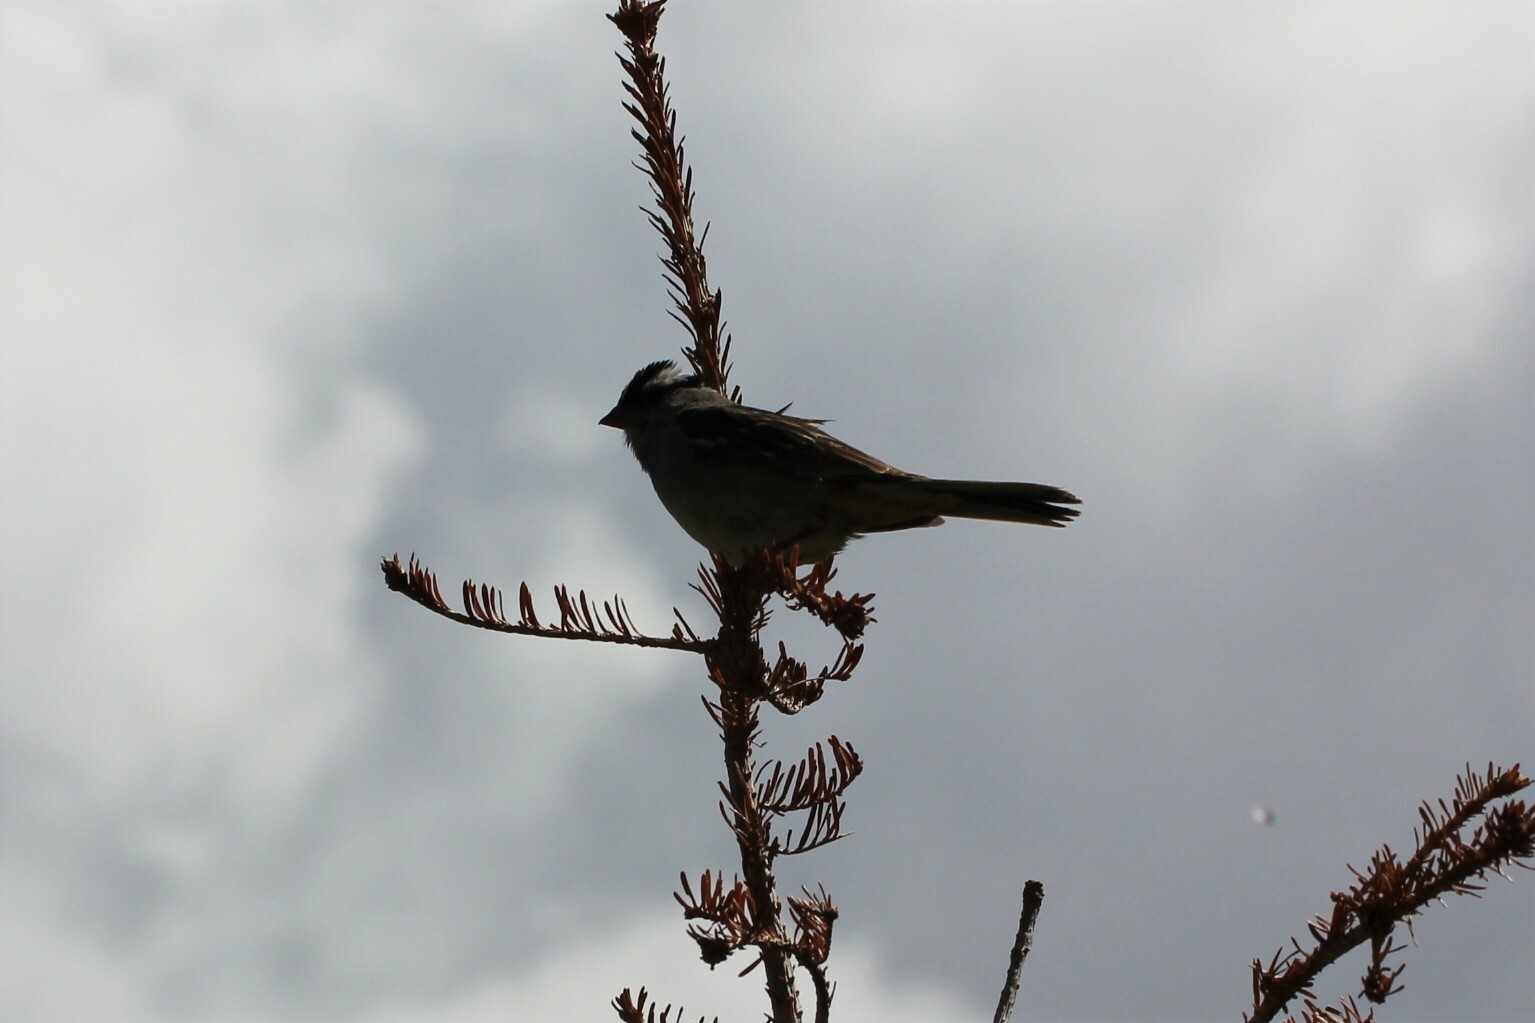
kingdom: Animalia
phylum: Chordata
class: Aves
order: Passeriformes
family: Passerellidae
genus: Zonotrichia
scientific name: Zonotrichia leucophrys
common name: White-crowned sparrow
